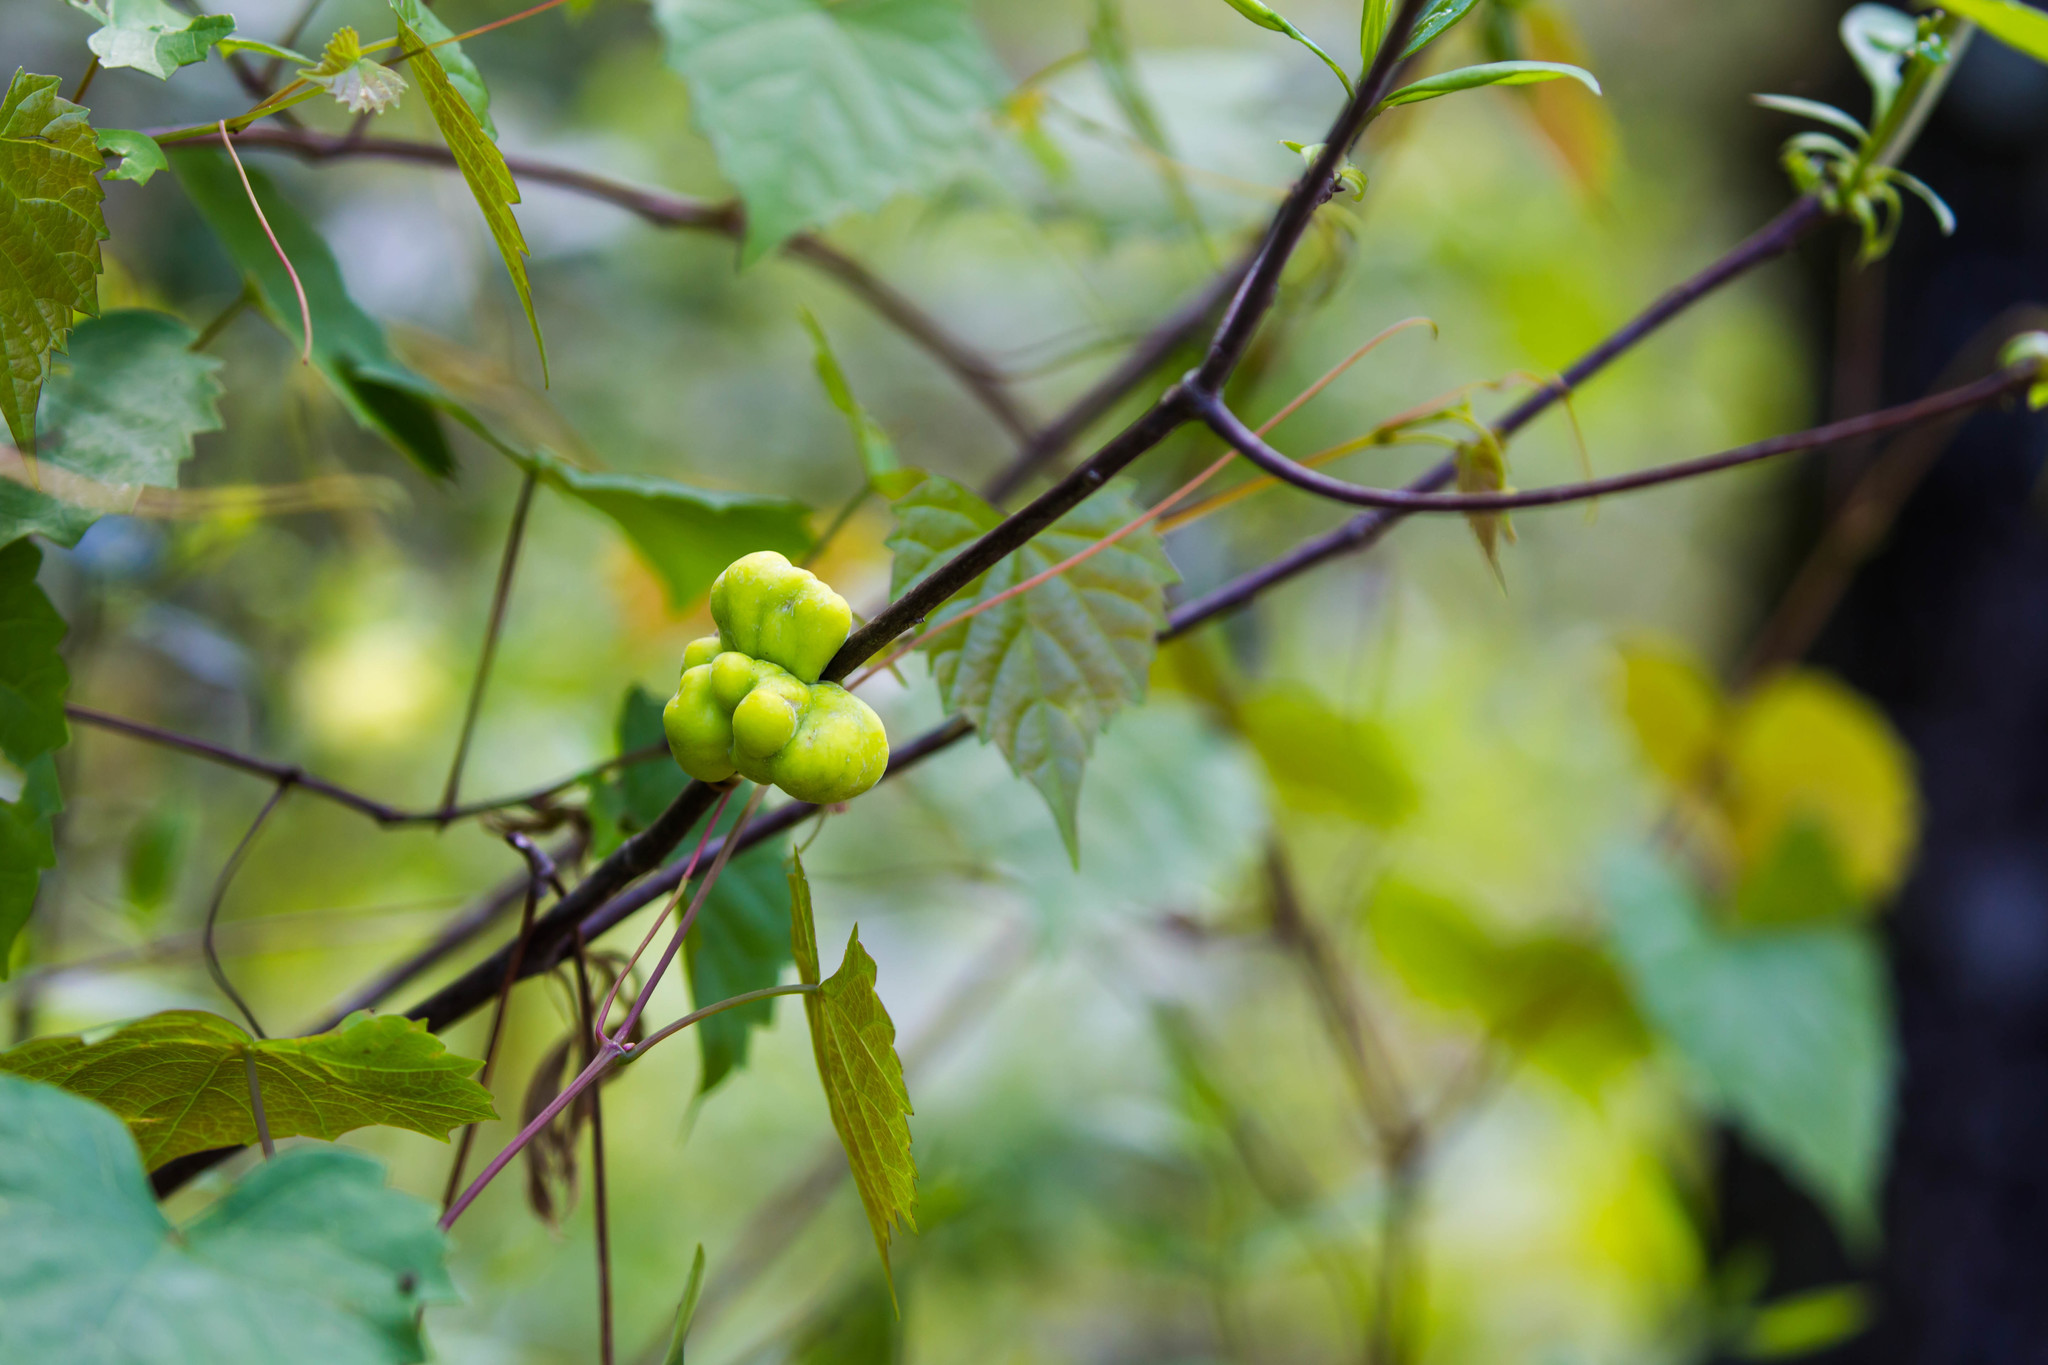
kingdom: Fungi
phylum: Basidiomycota
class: Exobasidiomycetes
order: Exobasidiales
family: Exobasidiaceae
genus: Exobasidium
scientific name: Exobasidium symploci
